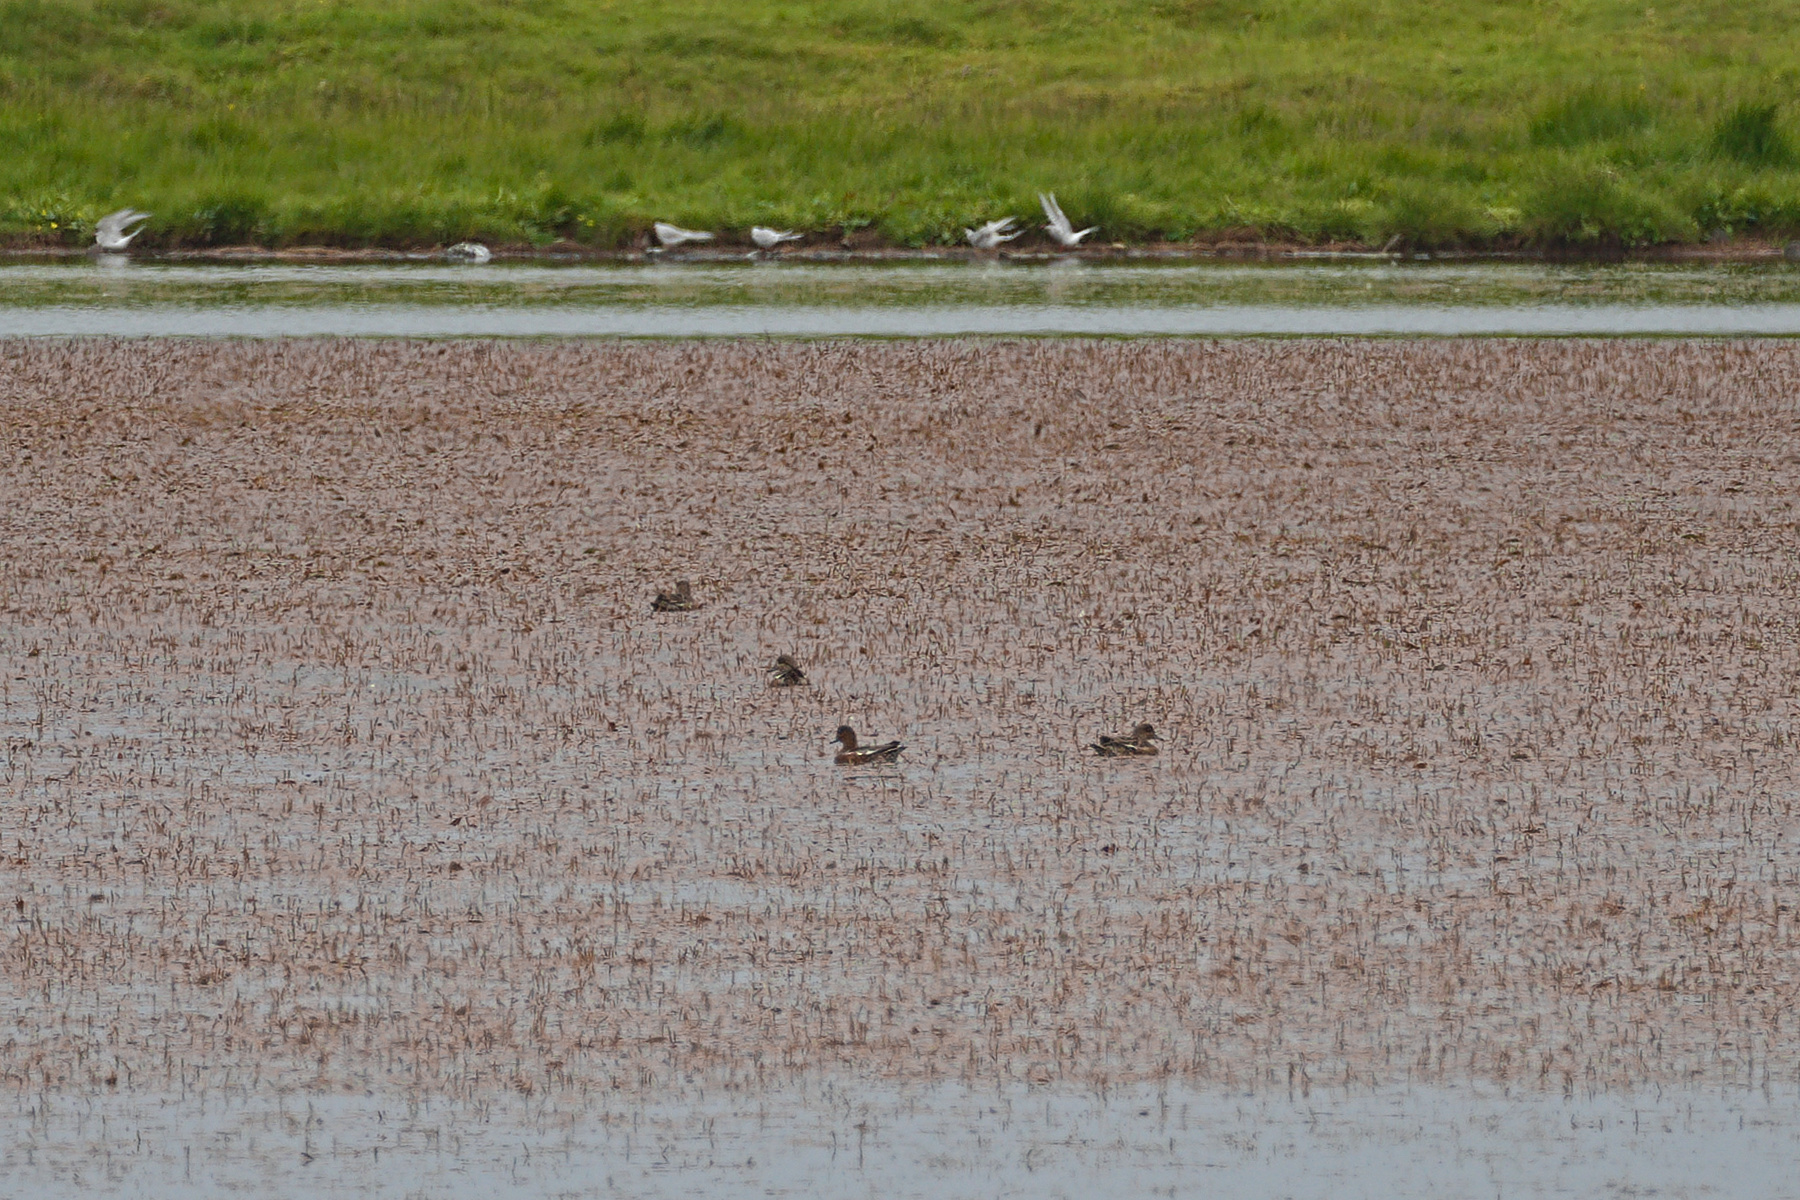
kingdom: Animalia
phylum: Chordata
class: Aves
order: Anseriformes
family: Anatidae
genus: Mareca
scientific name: Mareca penelope
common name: Eurasian wigeon
